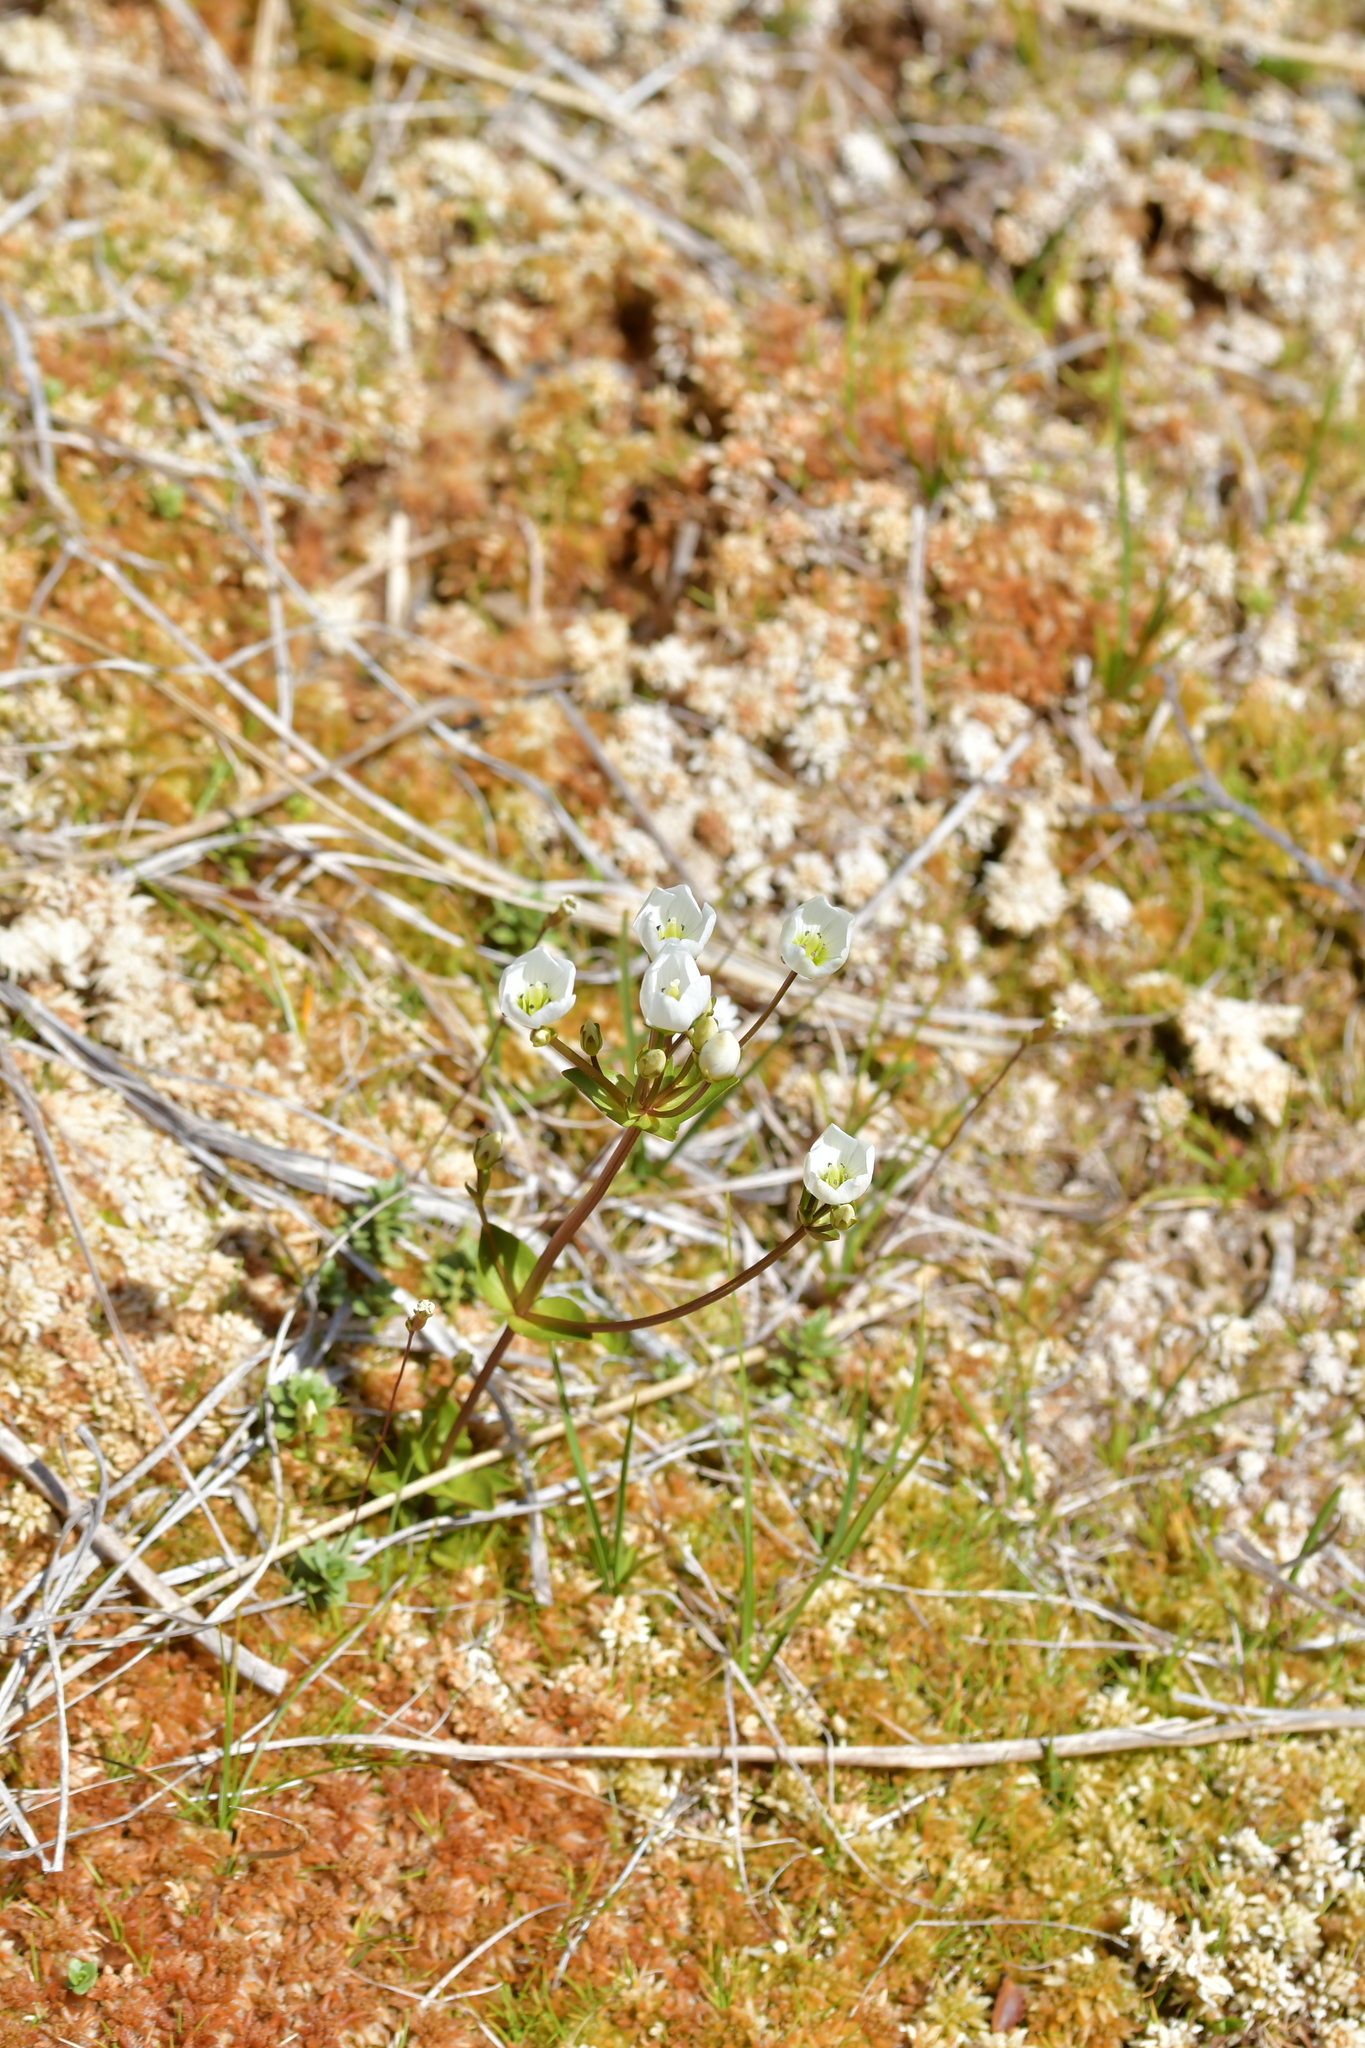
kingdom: Plantae
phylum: Tracheophyta
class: Magnoliopsida
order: Gentianales
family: Gentianaceae
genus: Gentianella
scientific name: Gentianella montana
